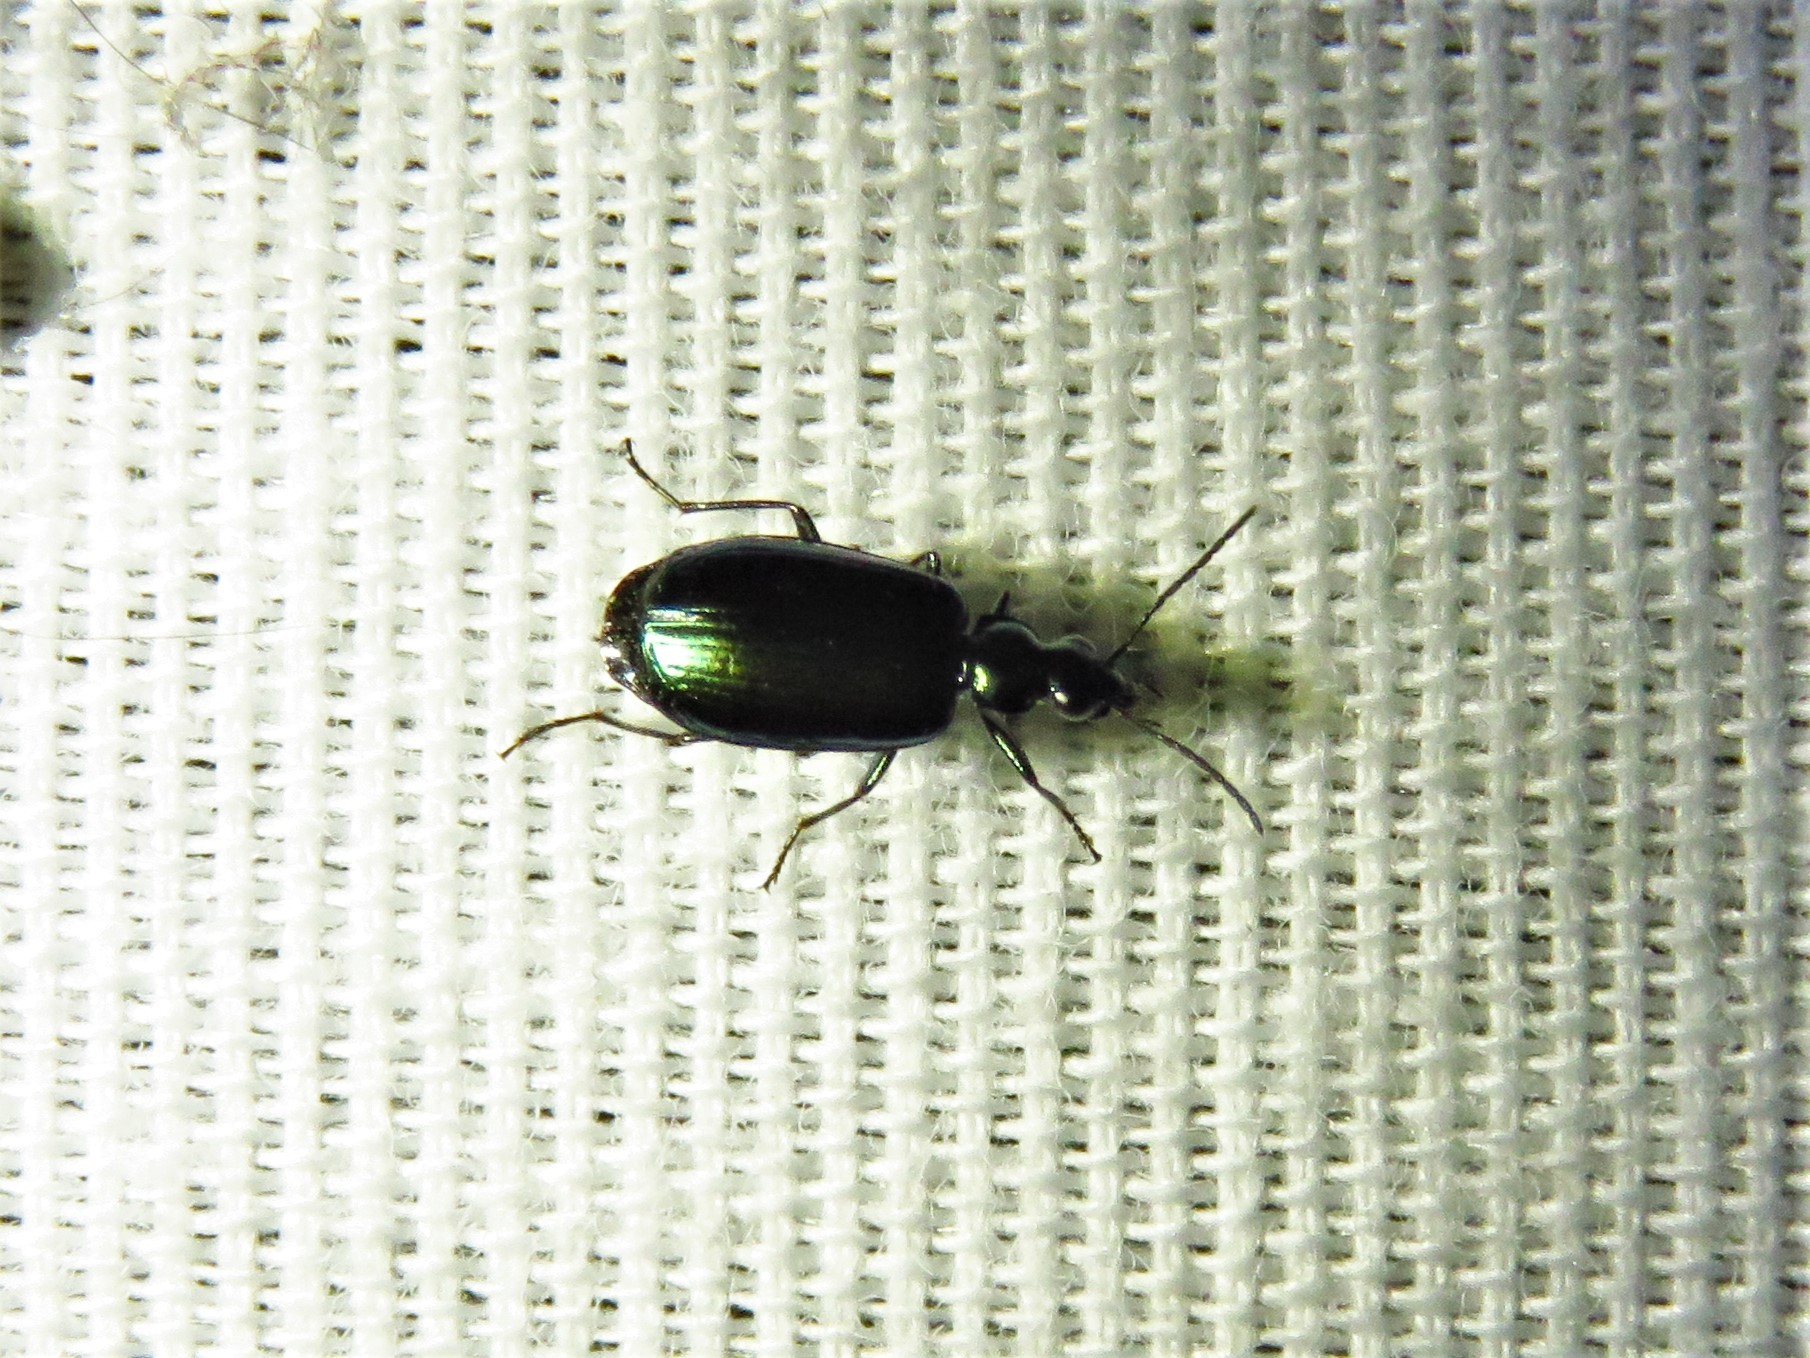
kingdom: Animalia
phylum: Arthropoda
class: Insecta
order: Coleoptera
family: Carabidae
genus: Lebia
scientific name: Lebia viridis
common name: Flower lebia beetle
